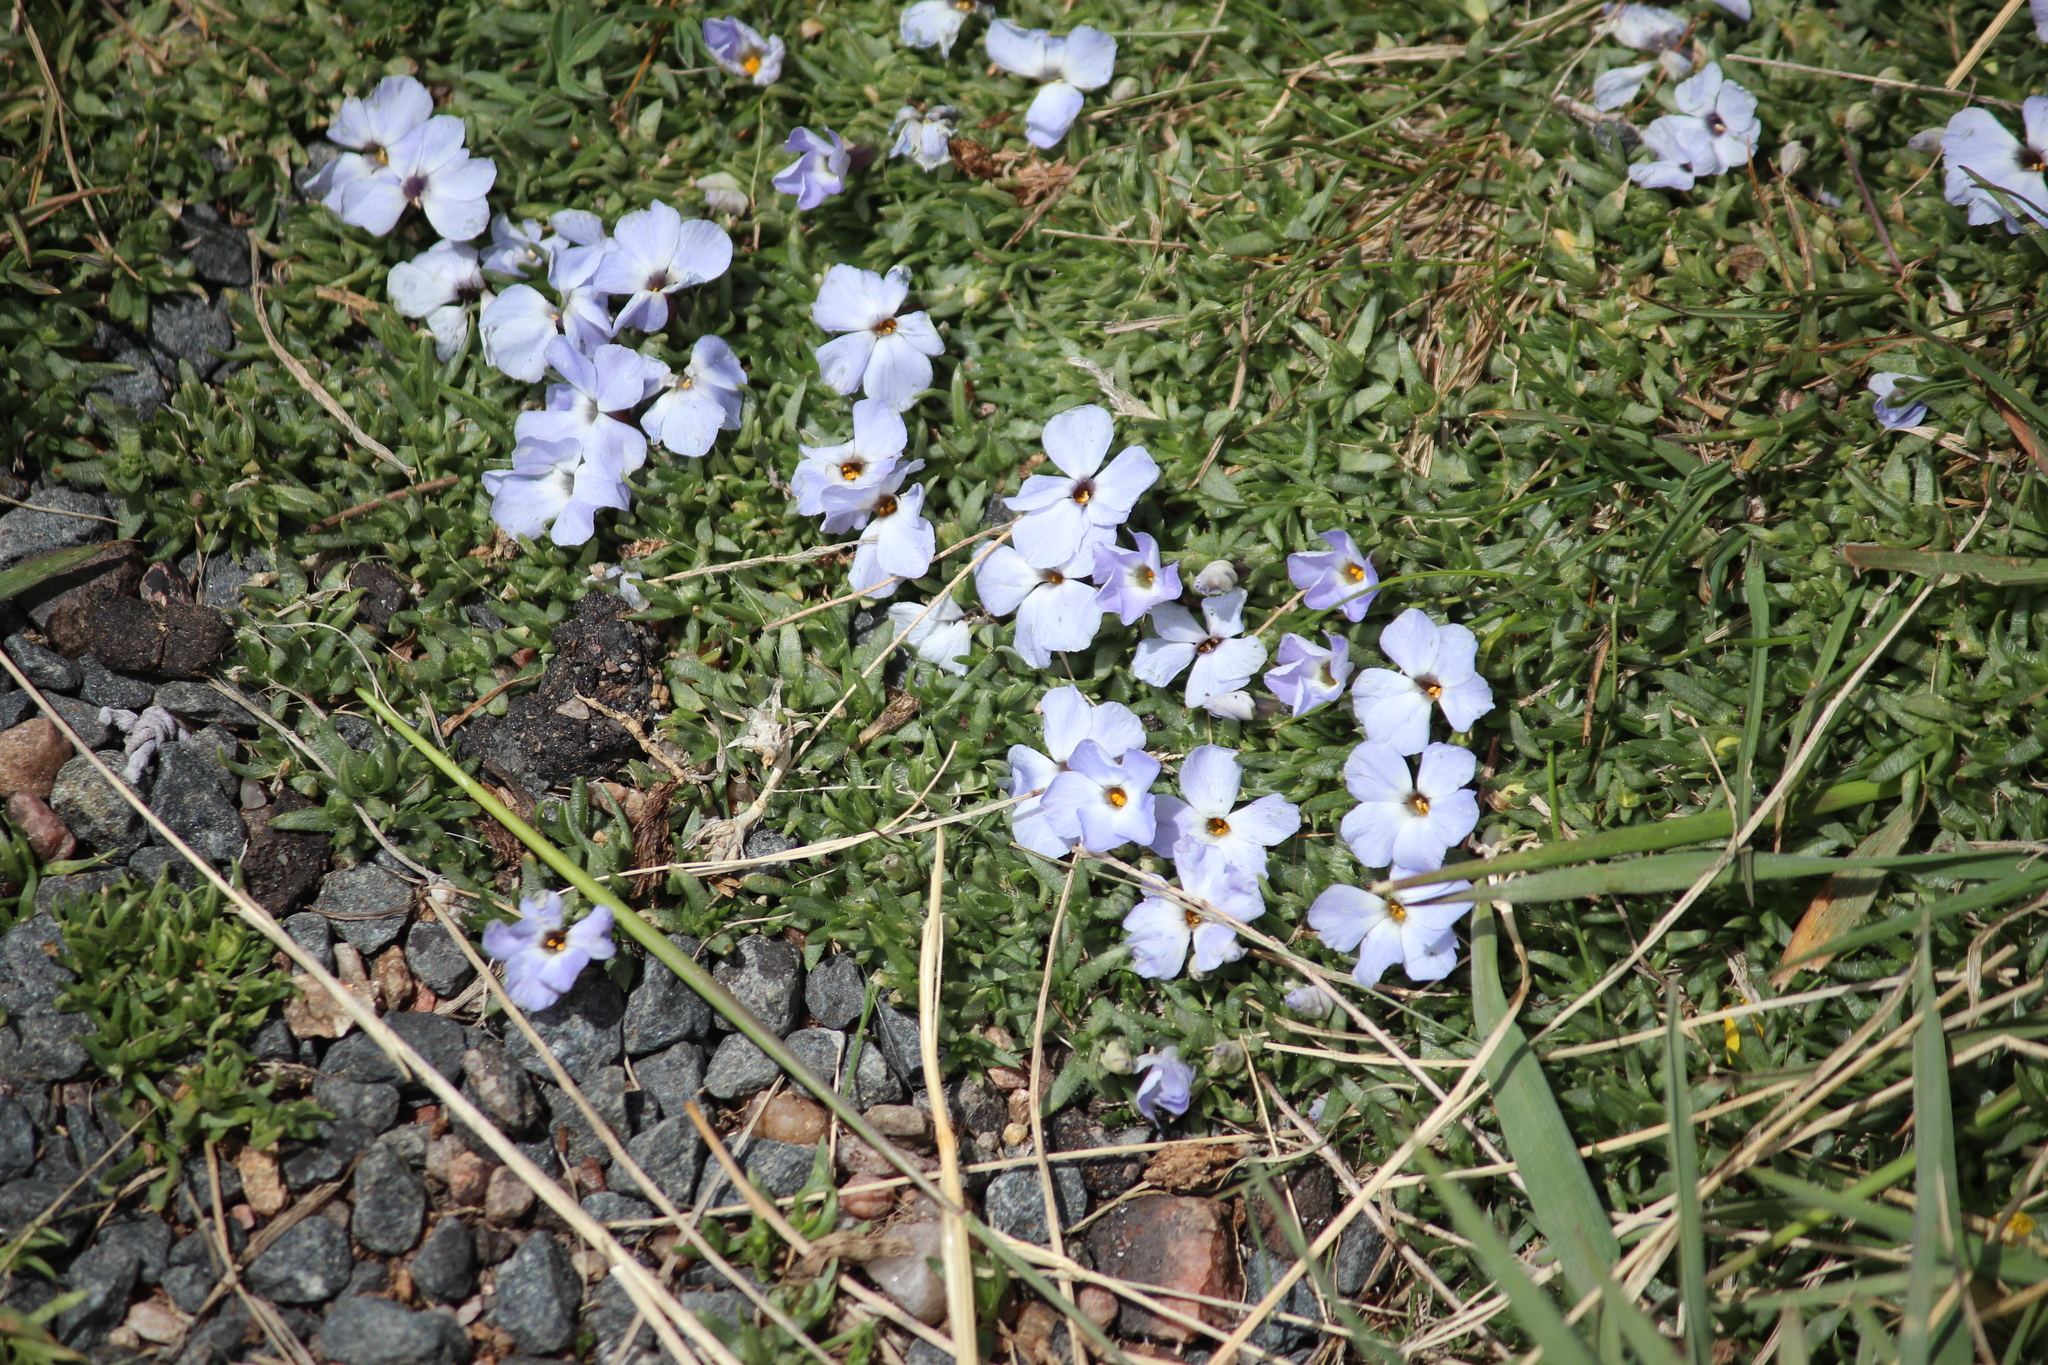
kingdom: Plantae
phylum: Tracheophyta
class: Magnoliopsida
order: Ericales
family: Polemoniaceae
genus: Phlox
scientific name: Phlox pulvinata
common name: Cushion phlox
